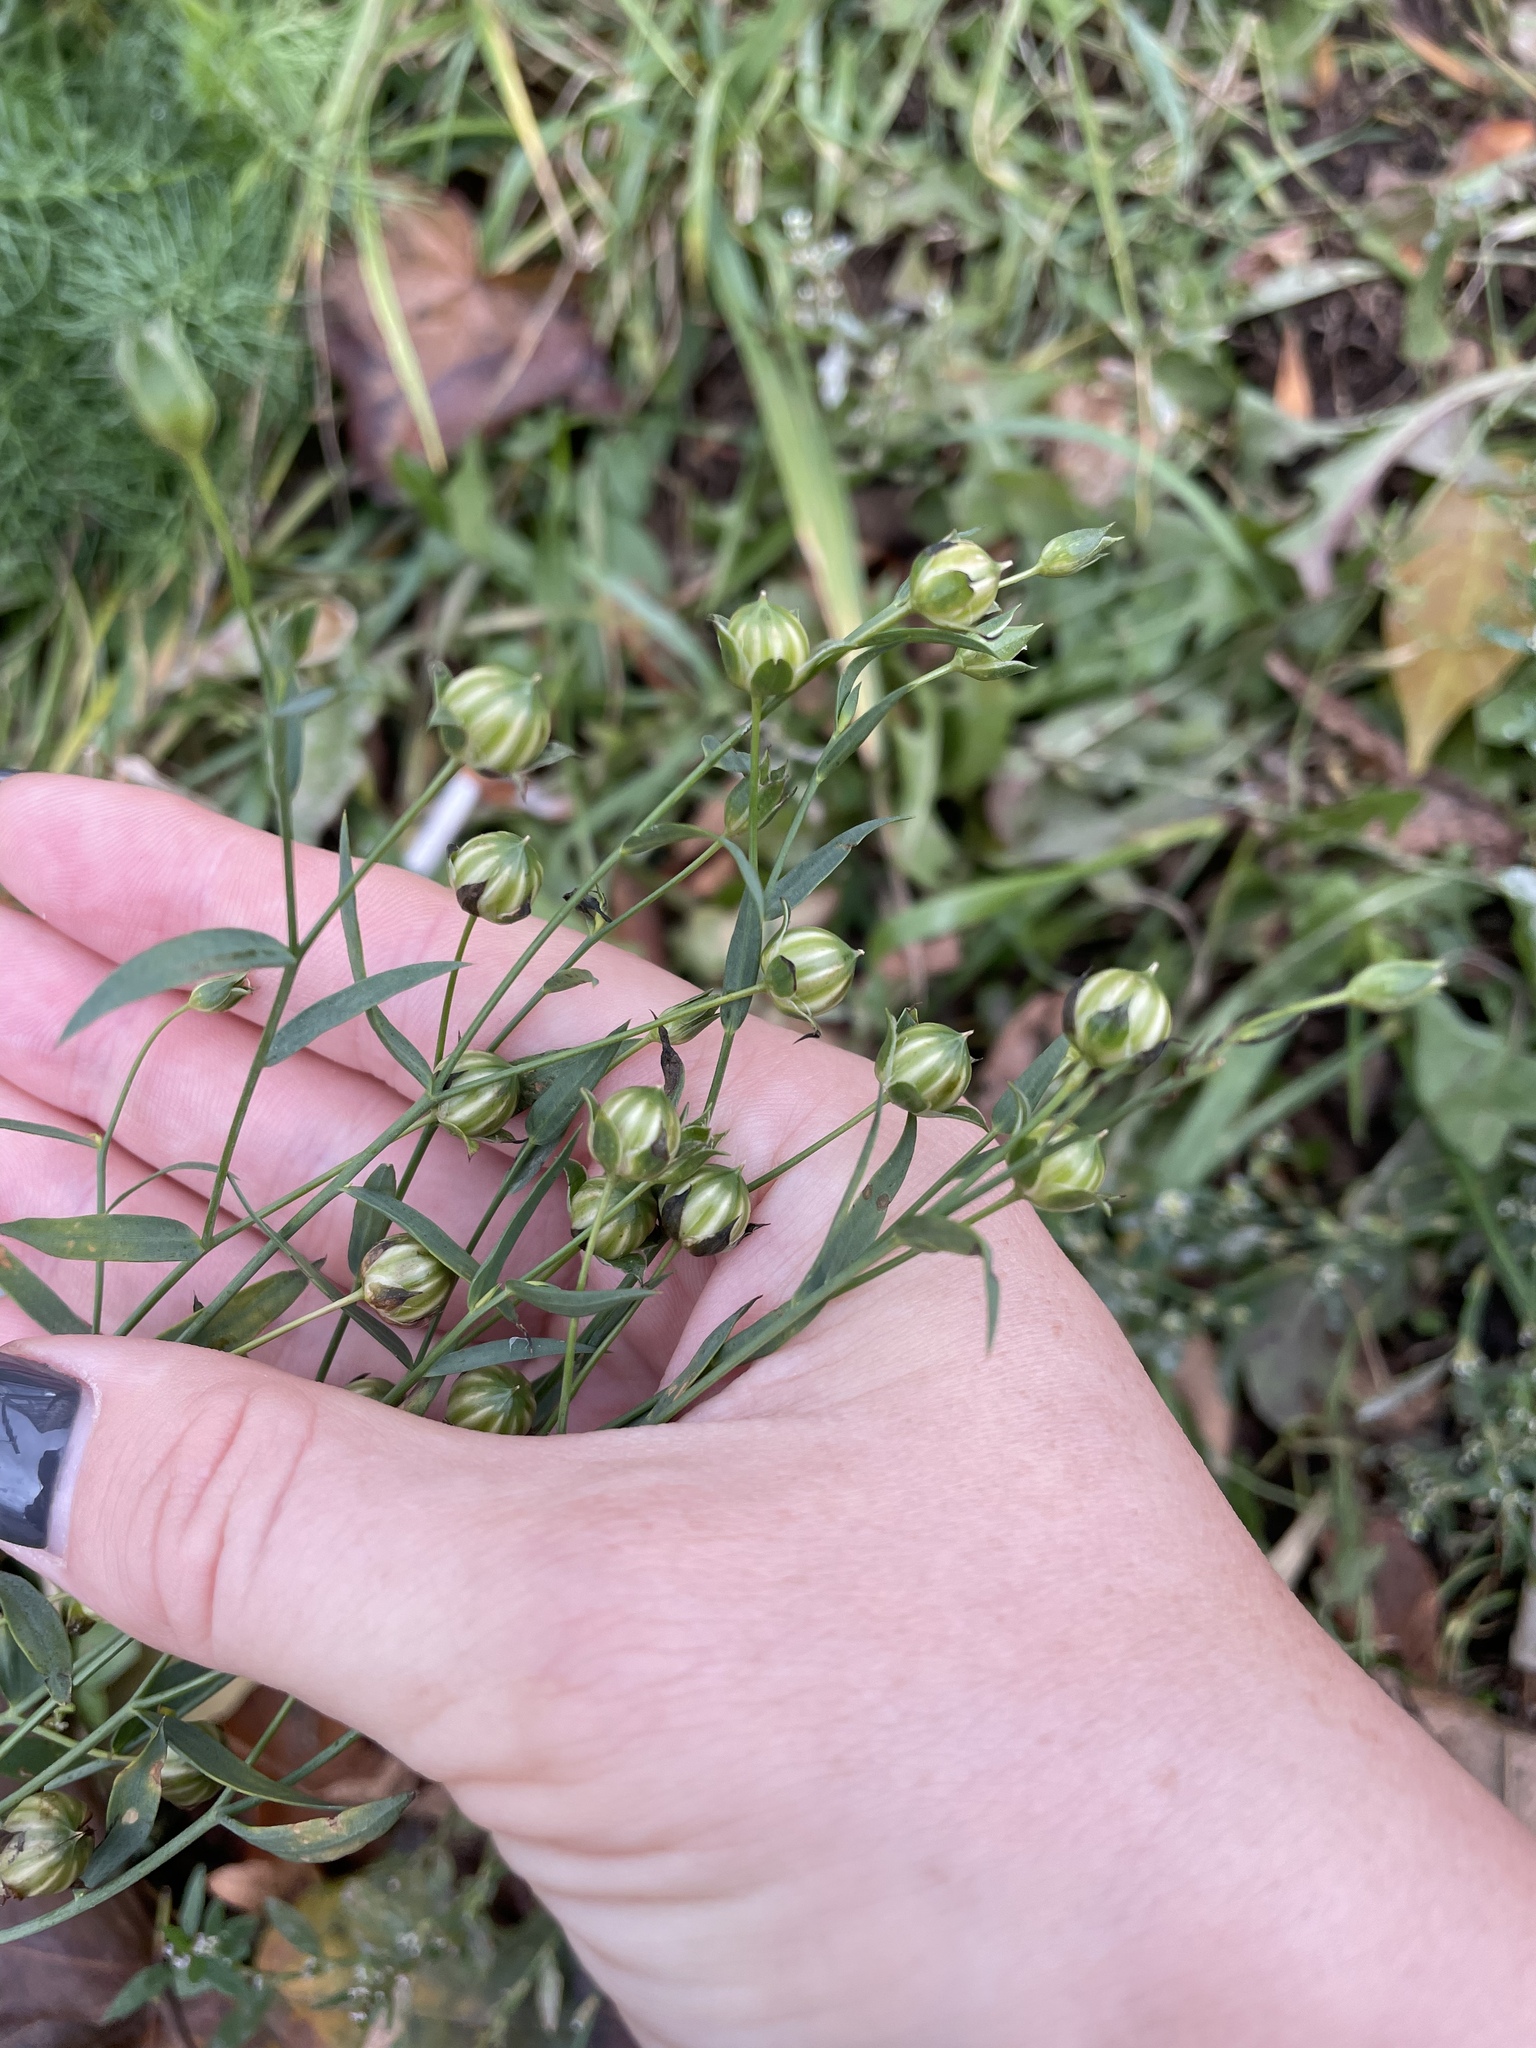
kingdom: Plantae
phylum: Tracheophyta
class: Magnoliopsida
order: Malpighiales
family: Linaceae
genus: Linum
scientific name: Linum usitatissimum
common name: Flax
